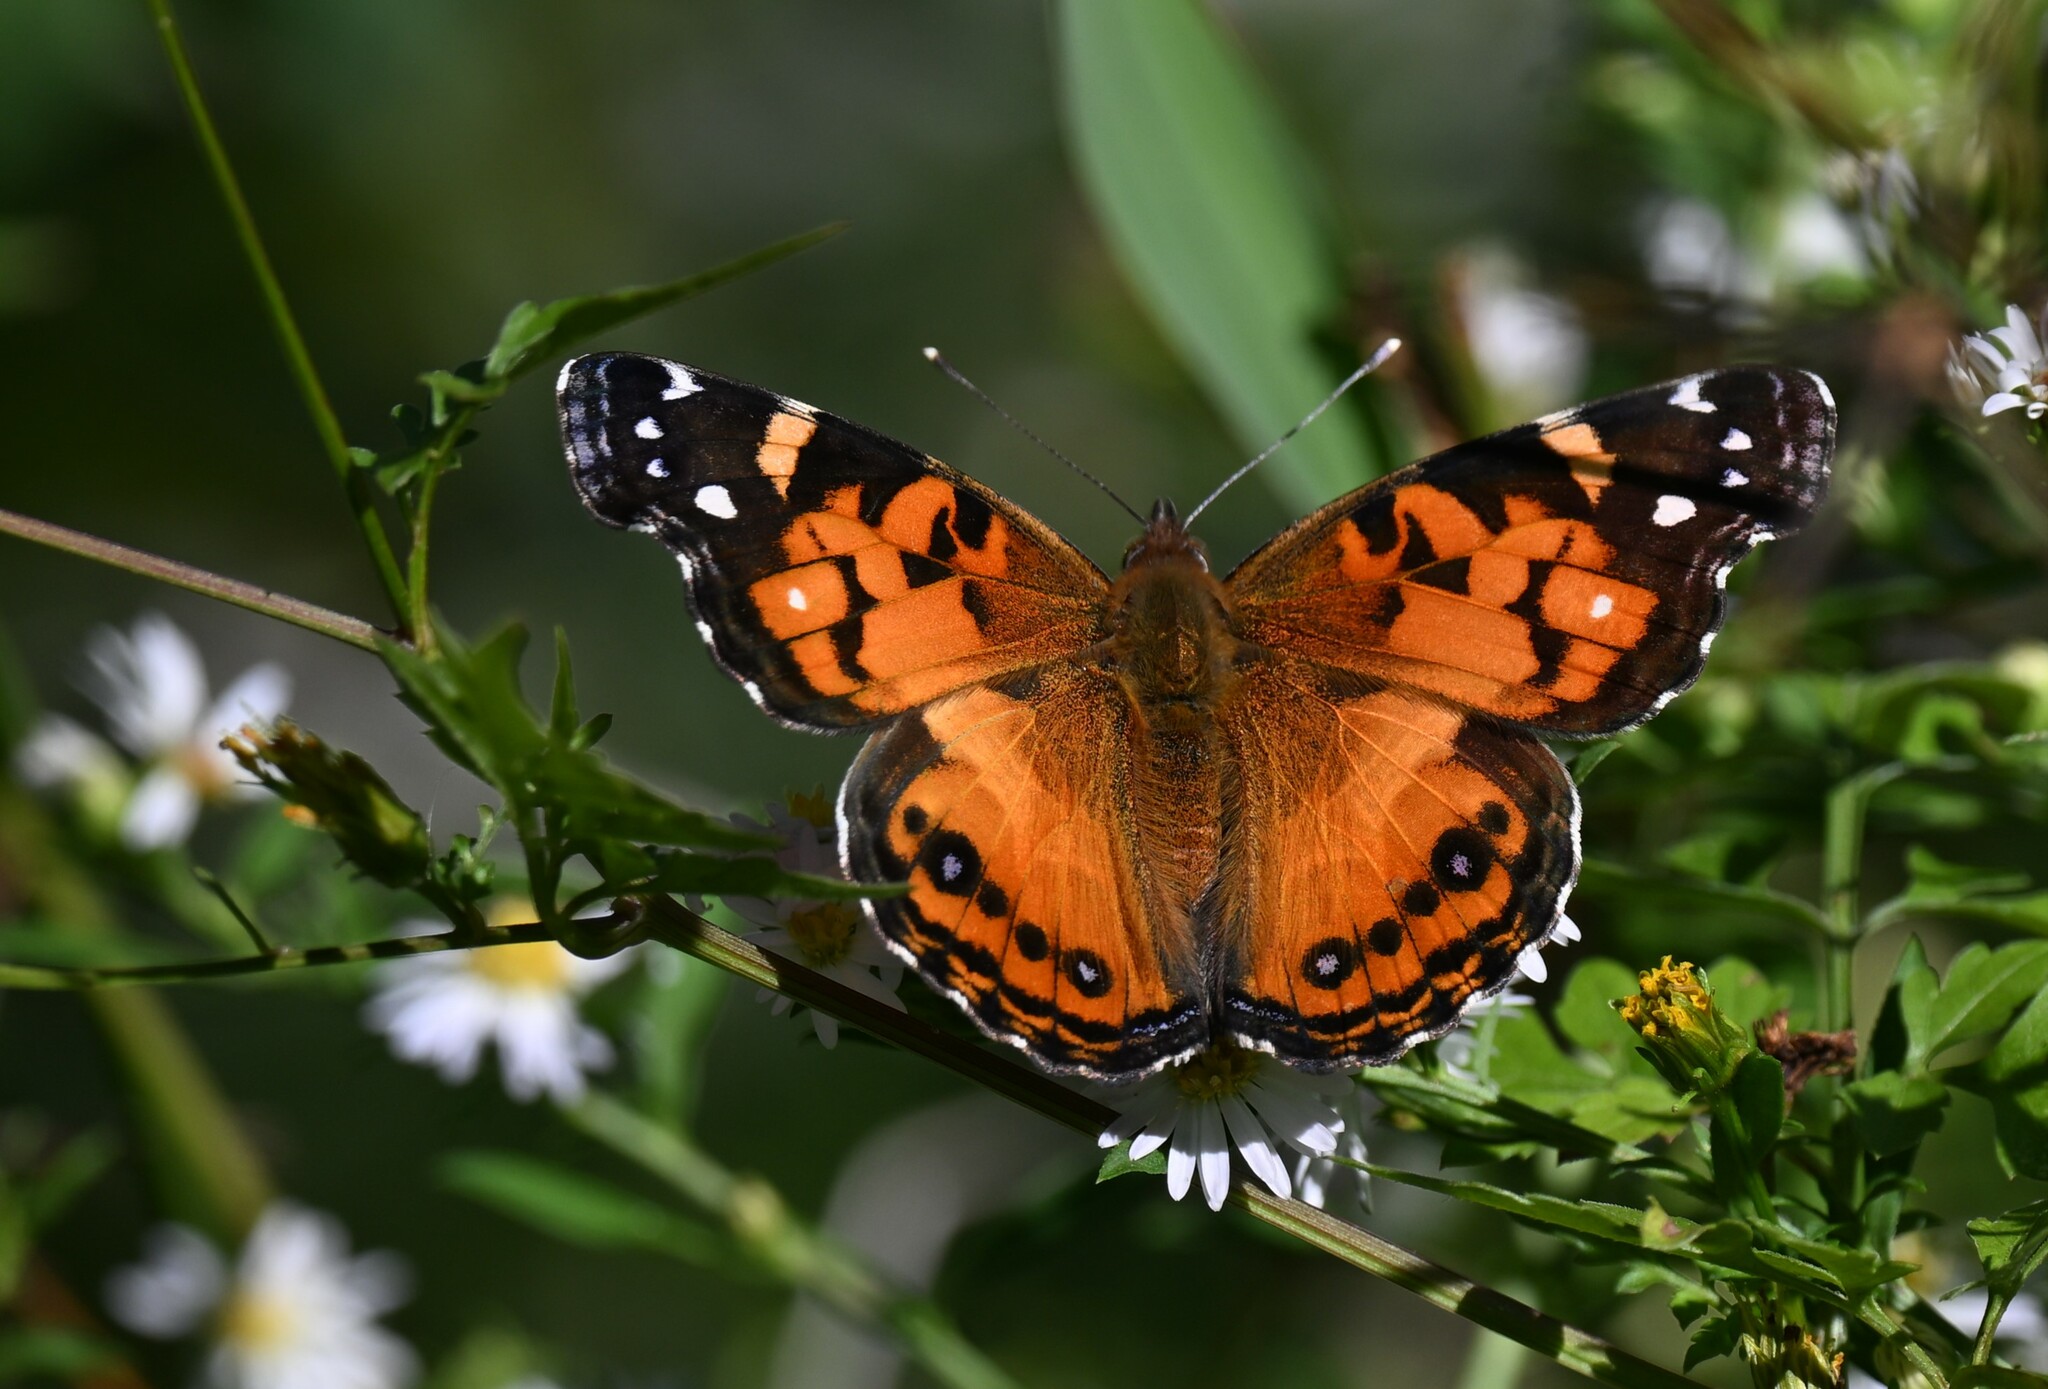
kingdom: Animalia
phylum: Arthropoda
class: Insecta
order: Lepidoptera
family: Nymphalidae
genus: Vanessa
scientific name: Vanessa virginiensis
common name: American lady
